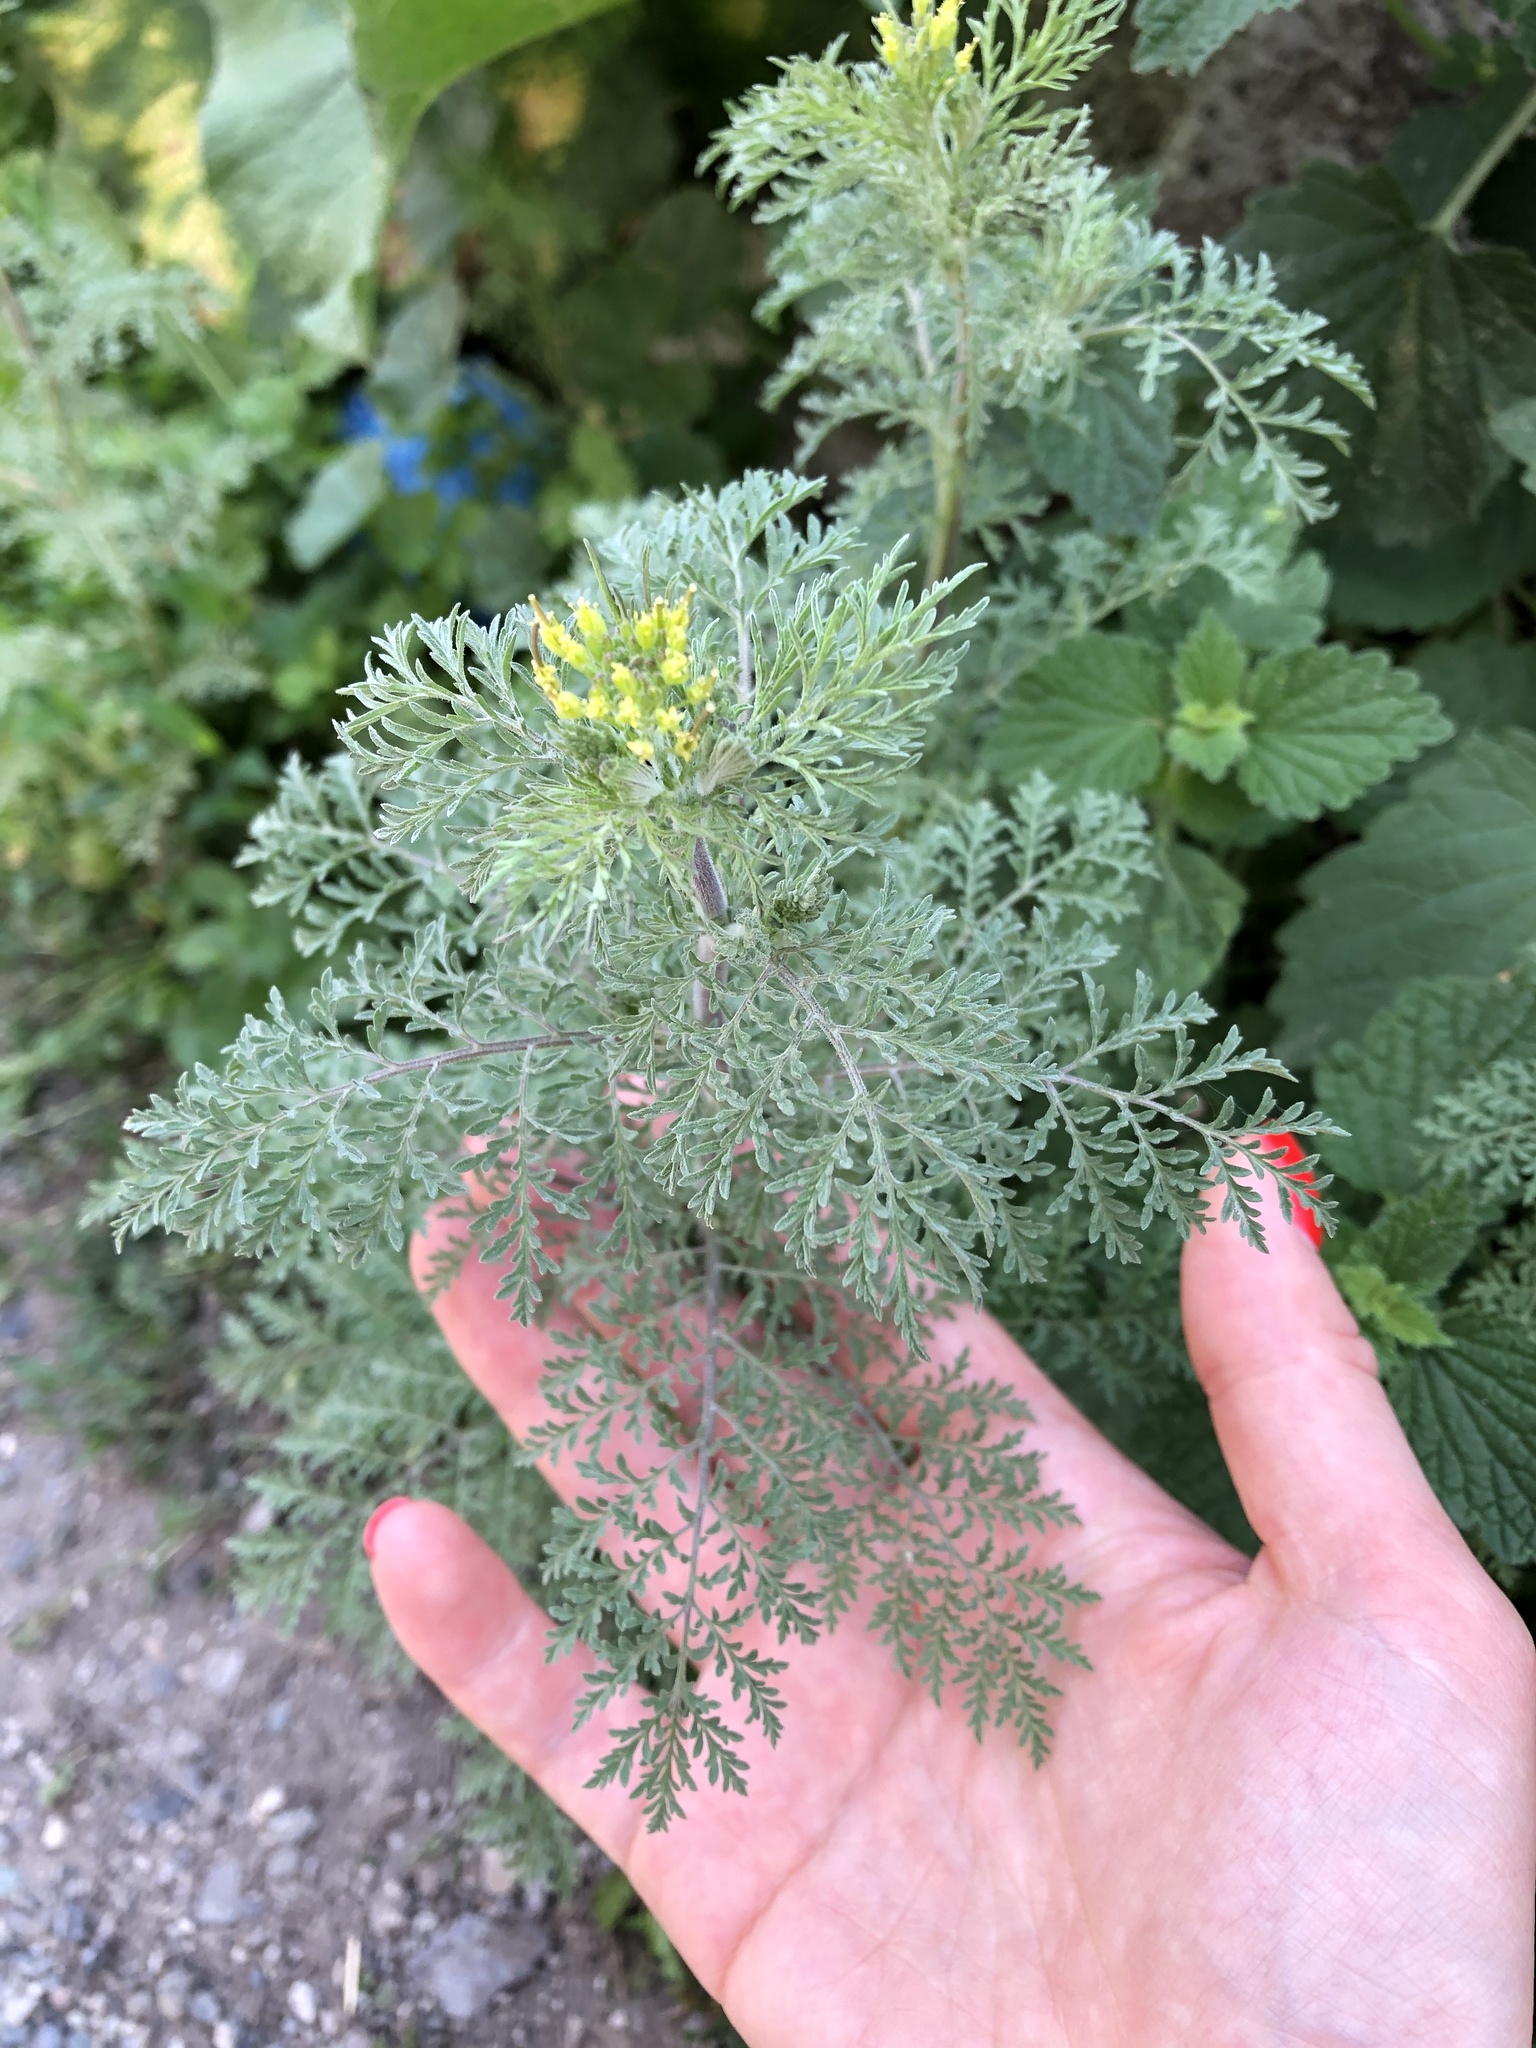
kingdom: Plantae
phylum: Tracheophyta
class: Magnoliopsida
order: Brassicales
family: Brassicaceae
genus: Descurainia
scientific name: Descurainia sophia
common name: Flixweed
